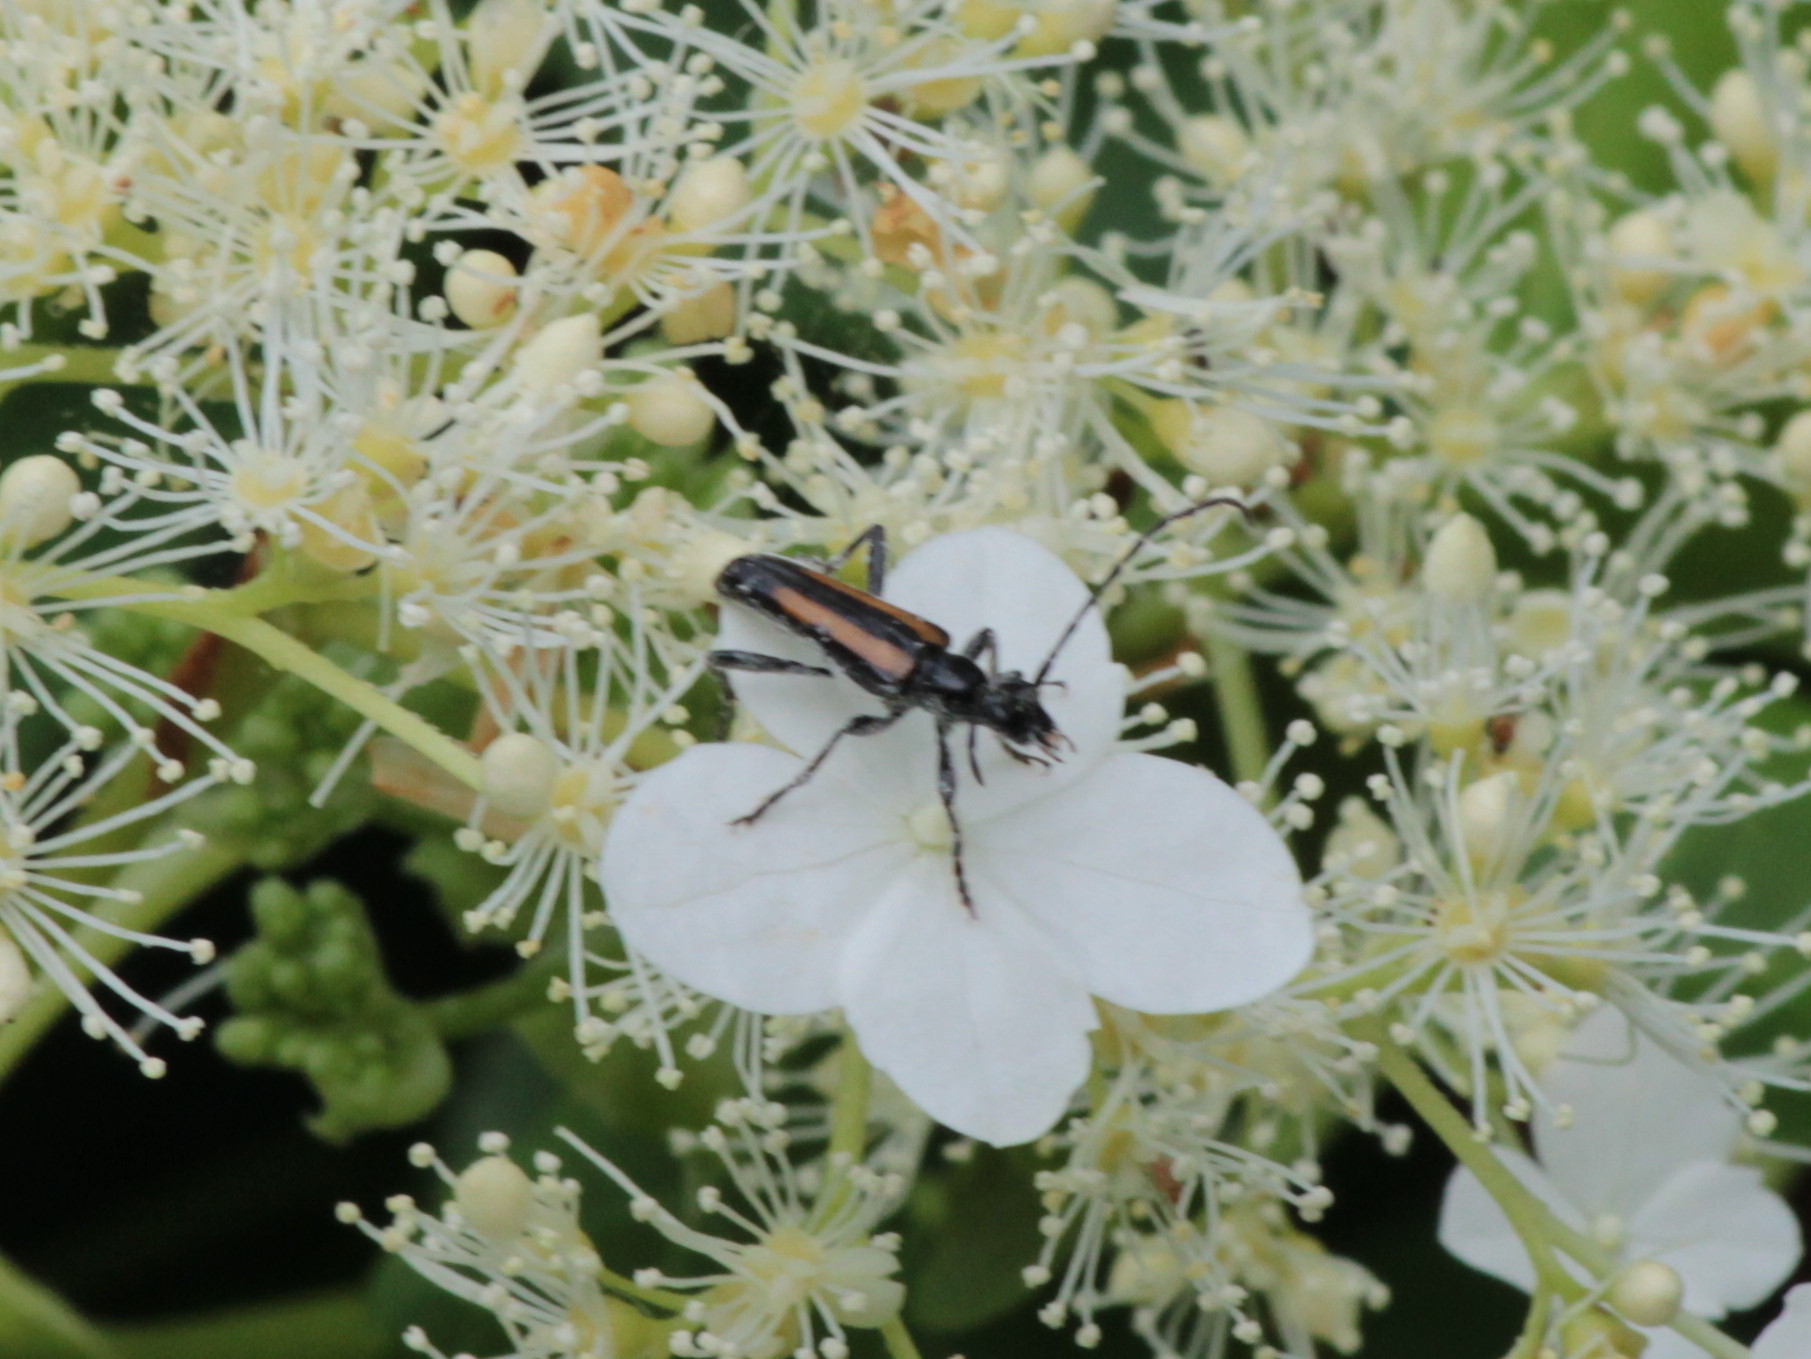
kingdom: Animalia
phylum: Arthropoda
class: Insecta
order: Coleoptera
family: Cerambycidae
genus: Strangalepta
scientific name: Strangalepta abbreviata
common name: Strangalepta flower longhorn beetle
